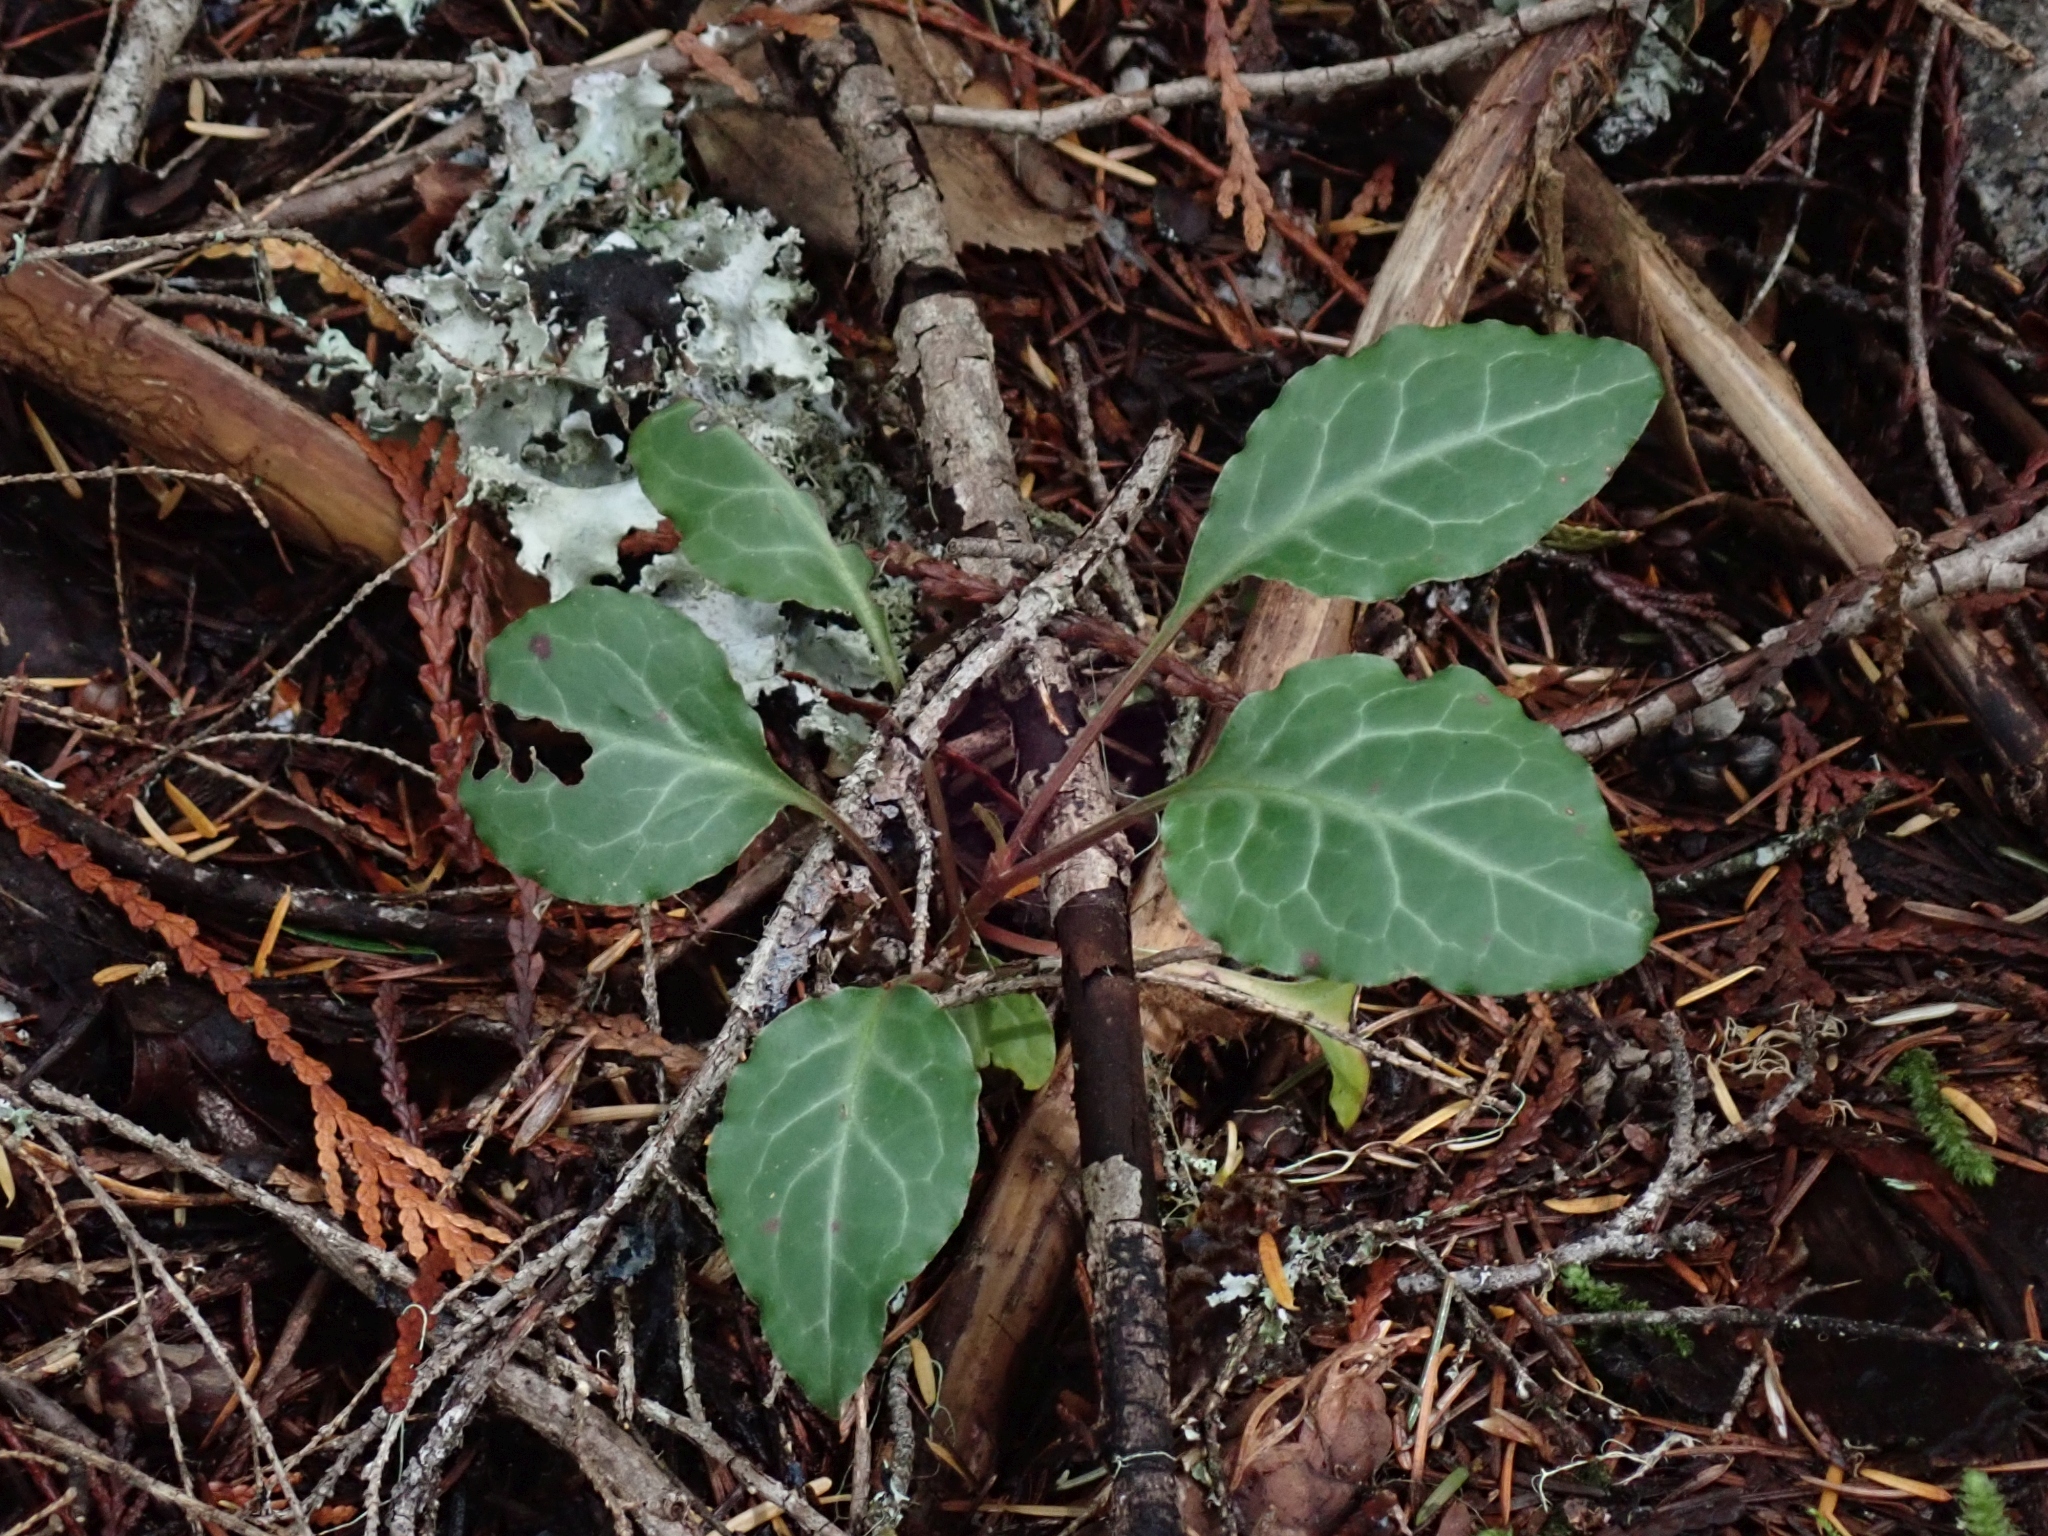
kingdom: Plantae
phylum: Tracheophyta
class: Magnoliopsida
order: Ericales
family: Ericaceae
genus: Pyrola
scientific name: Pyrola picta
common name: White-vein wintergreen
